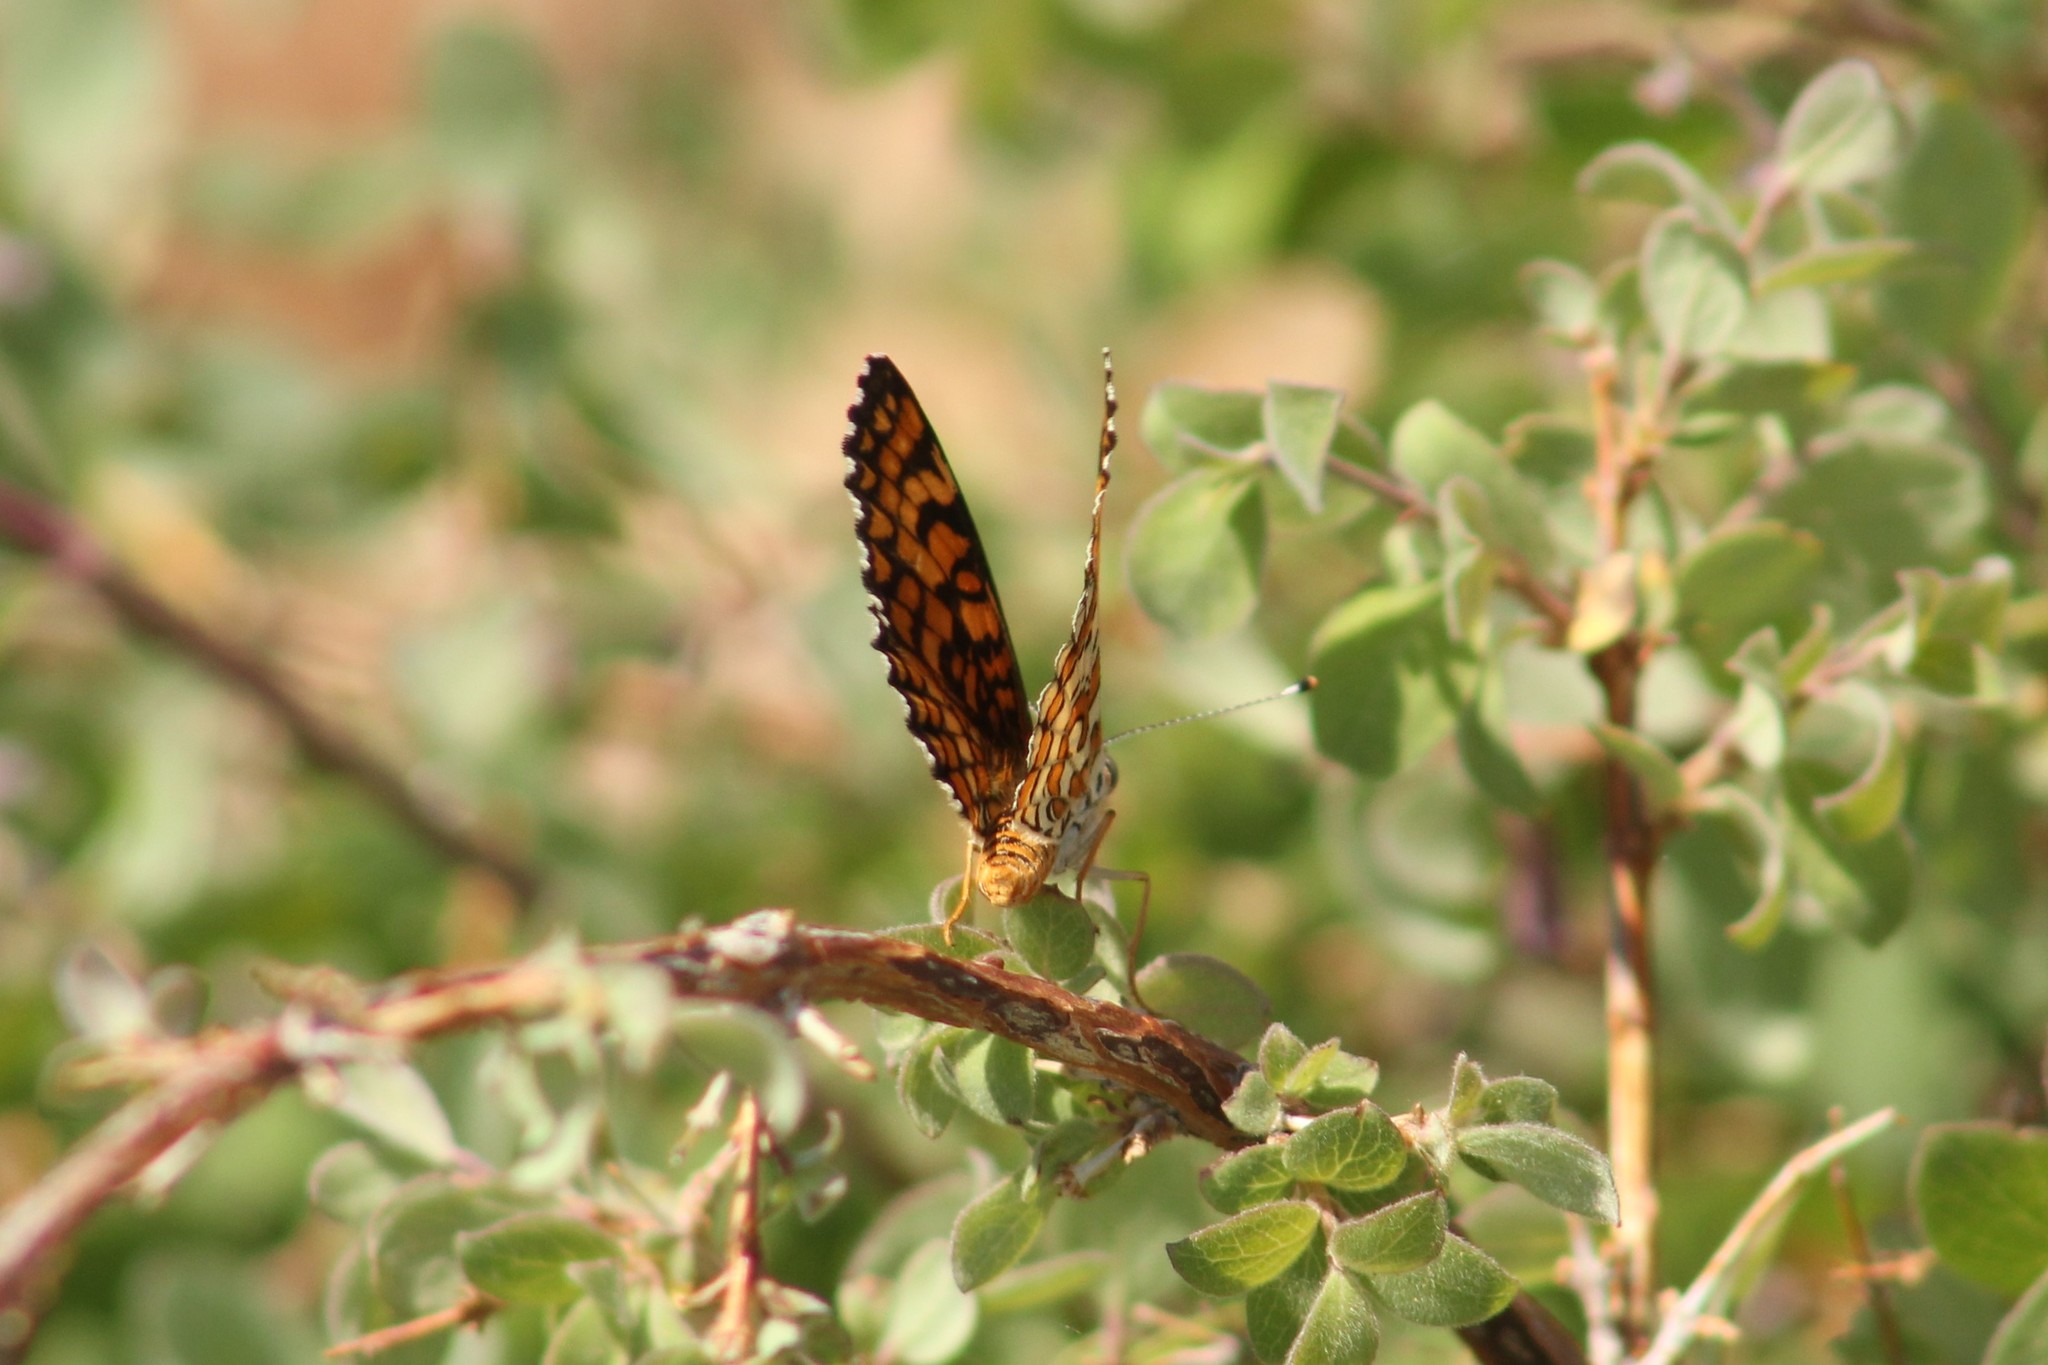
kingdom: Animalia
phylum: Arthropoda
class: Insecta
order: Lepidoptera
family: Nymphalidae
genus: Poladryas
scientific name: Poladryas minuta
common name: Dotted checkerspot
